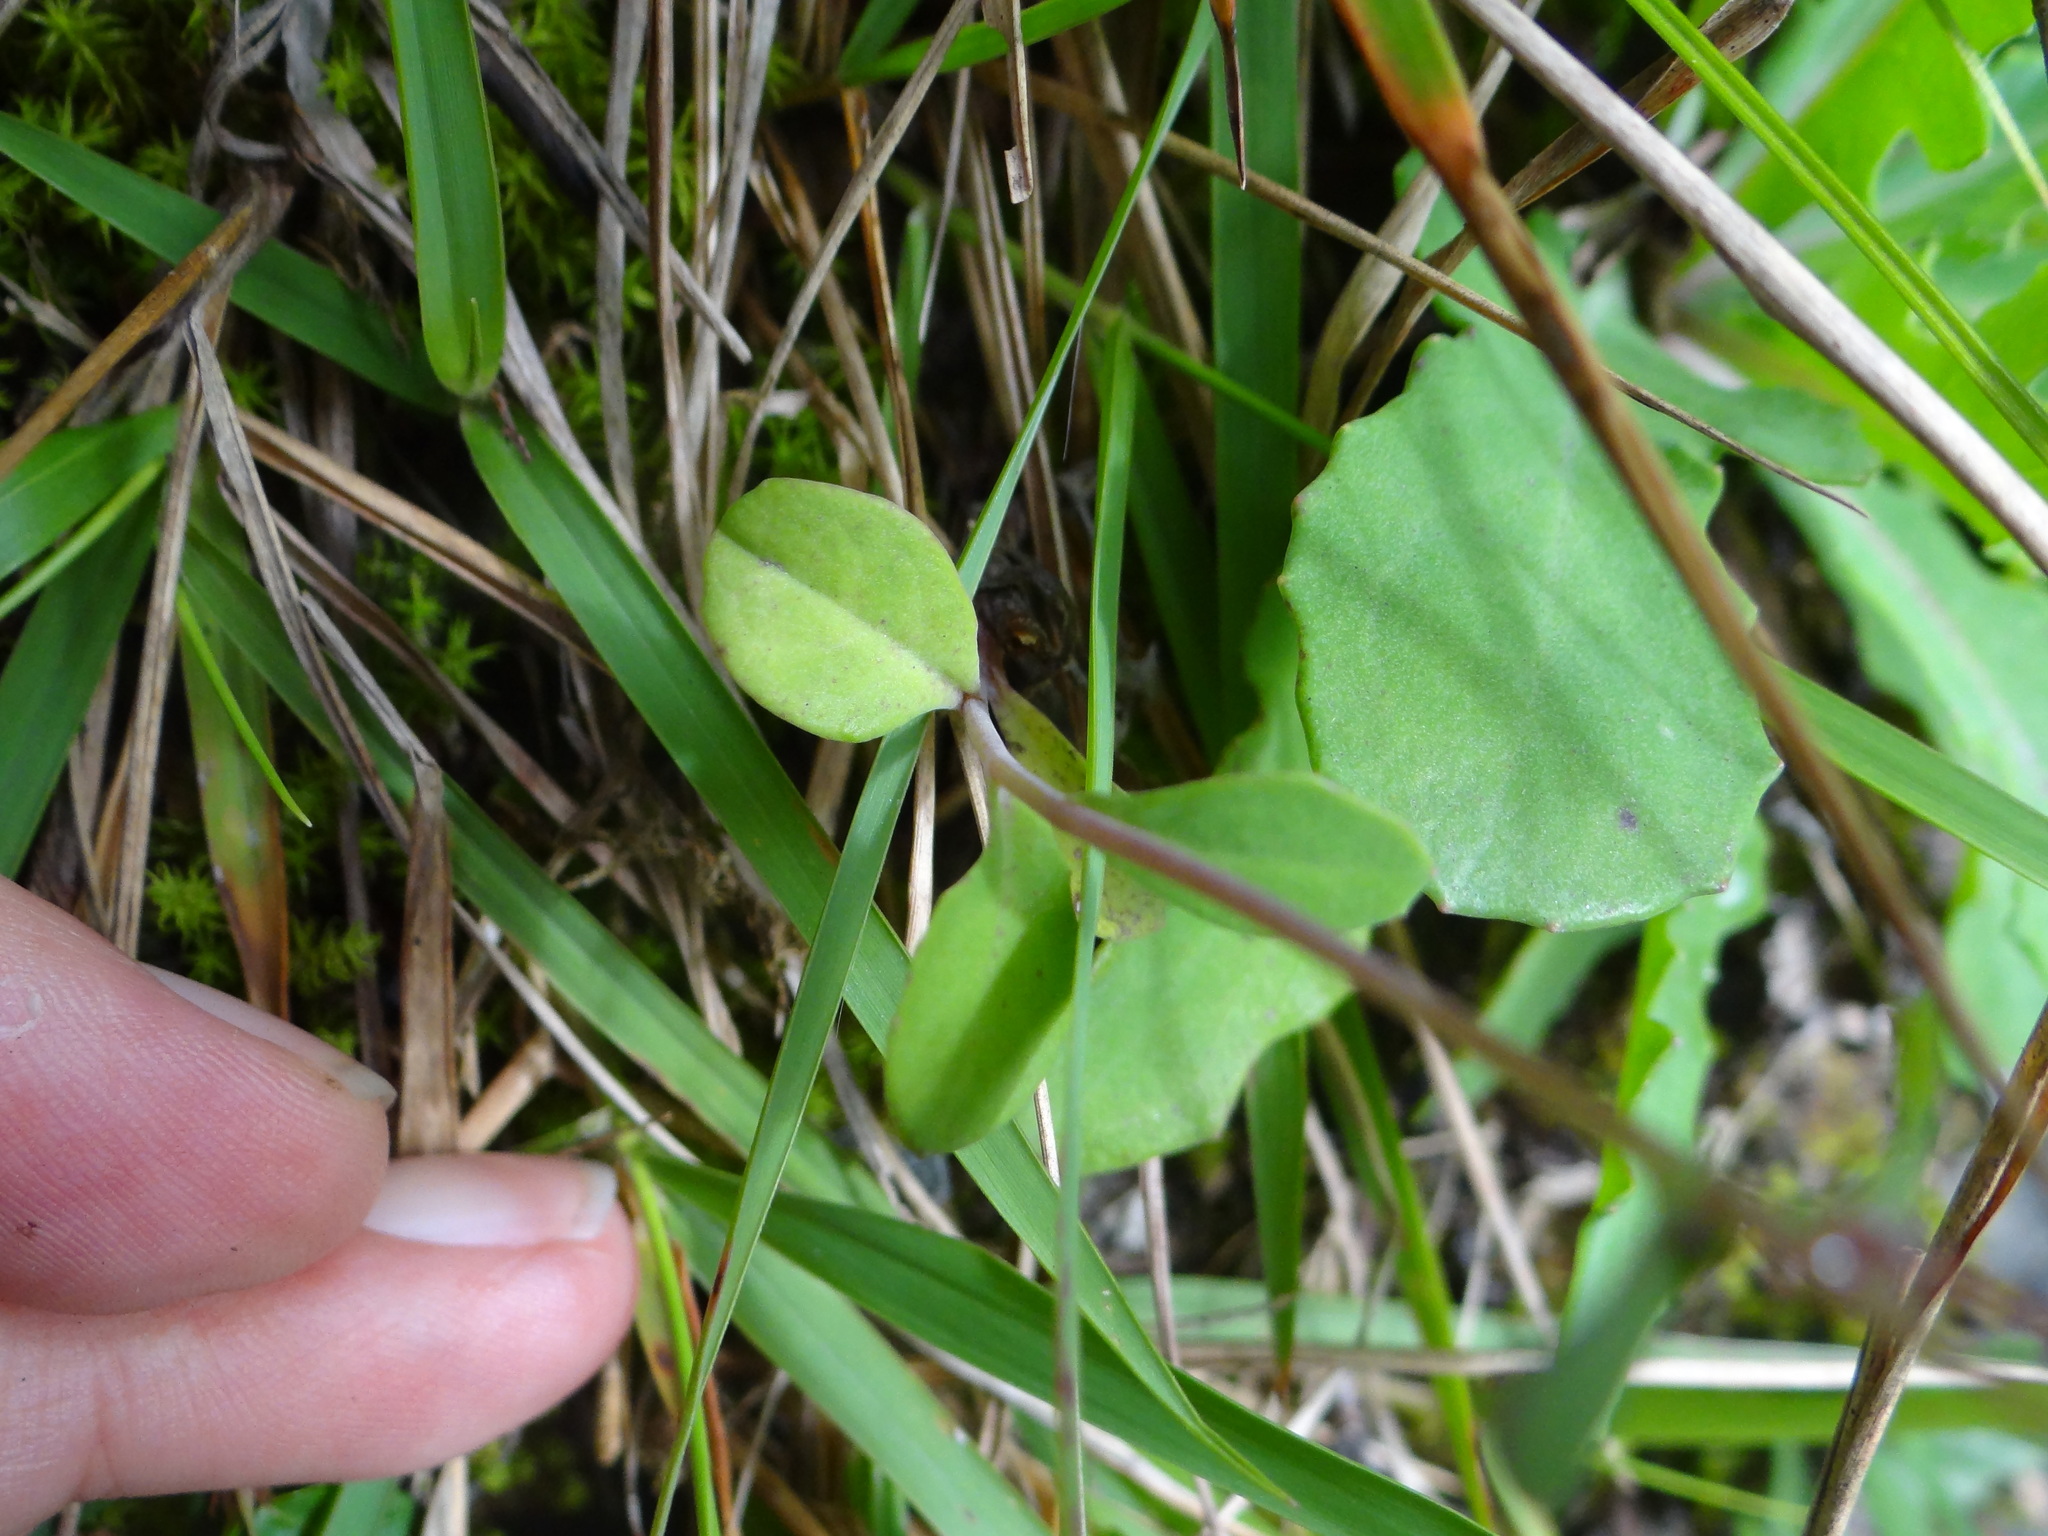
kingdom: Plantae
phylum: Tracheophyta
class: Magnoliopsida
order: Asterales
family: Asteraceae
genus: Ixeridium
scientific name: Ixeridium laevigatum
